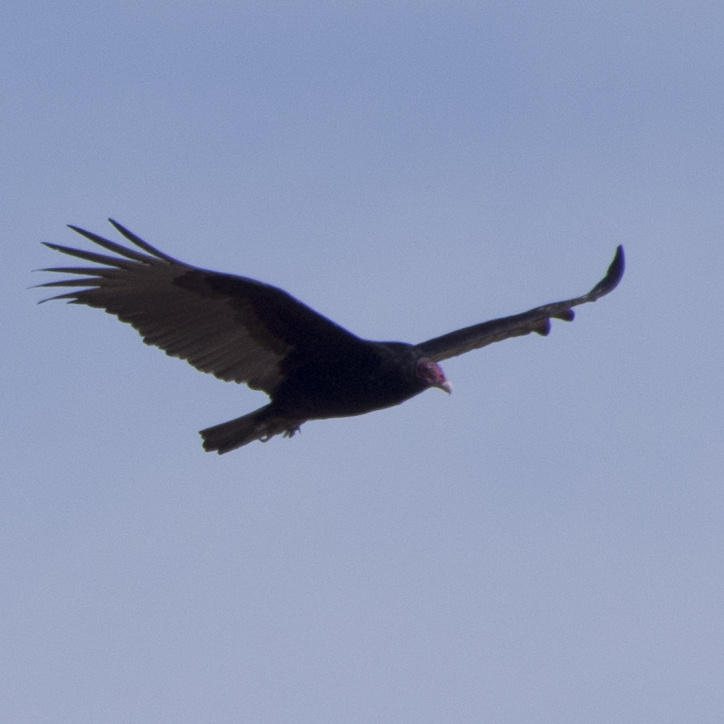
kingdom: Animalia
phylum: Chordata
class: Aves
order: Accipitriformes
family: Cathartidae
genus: Cathartes
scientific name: Cathartes aura
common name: Turkey vulture
